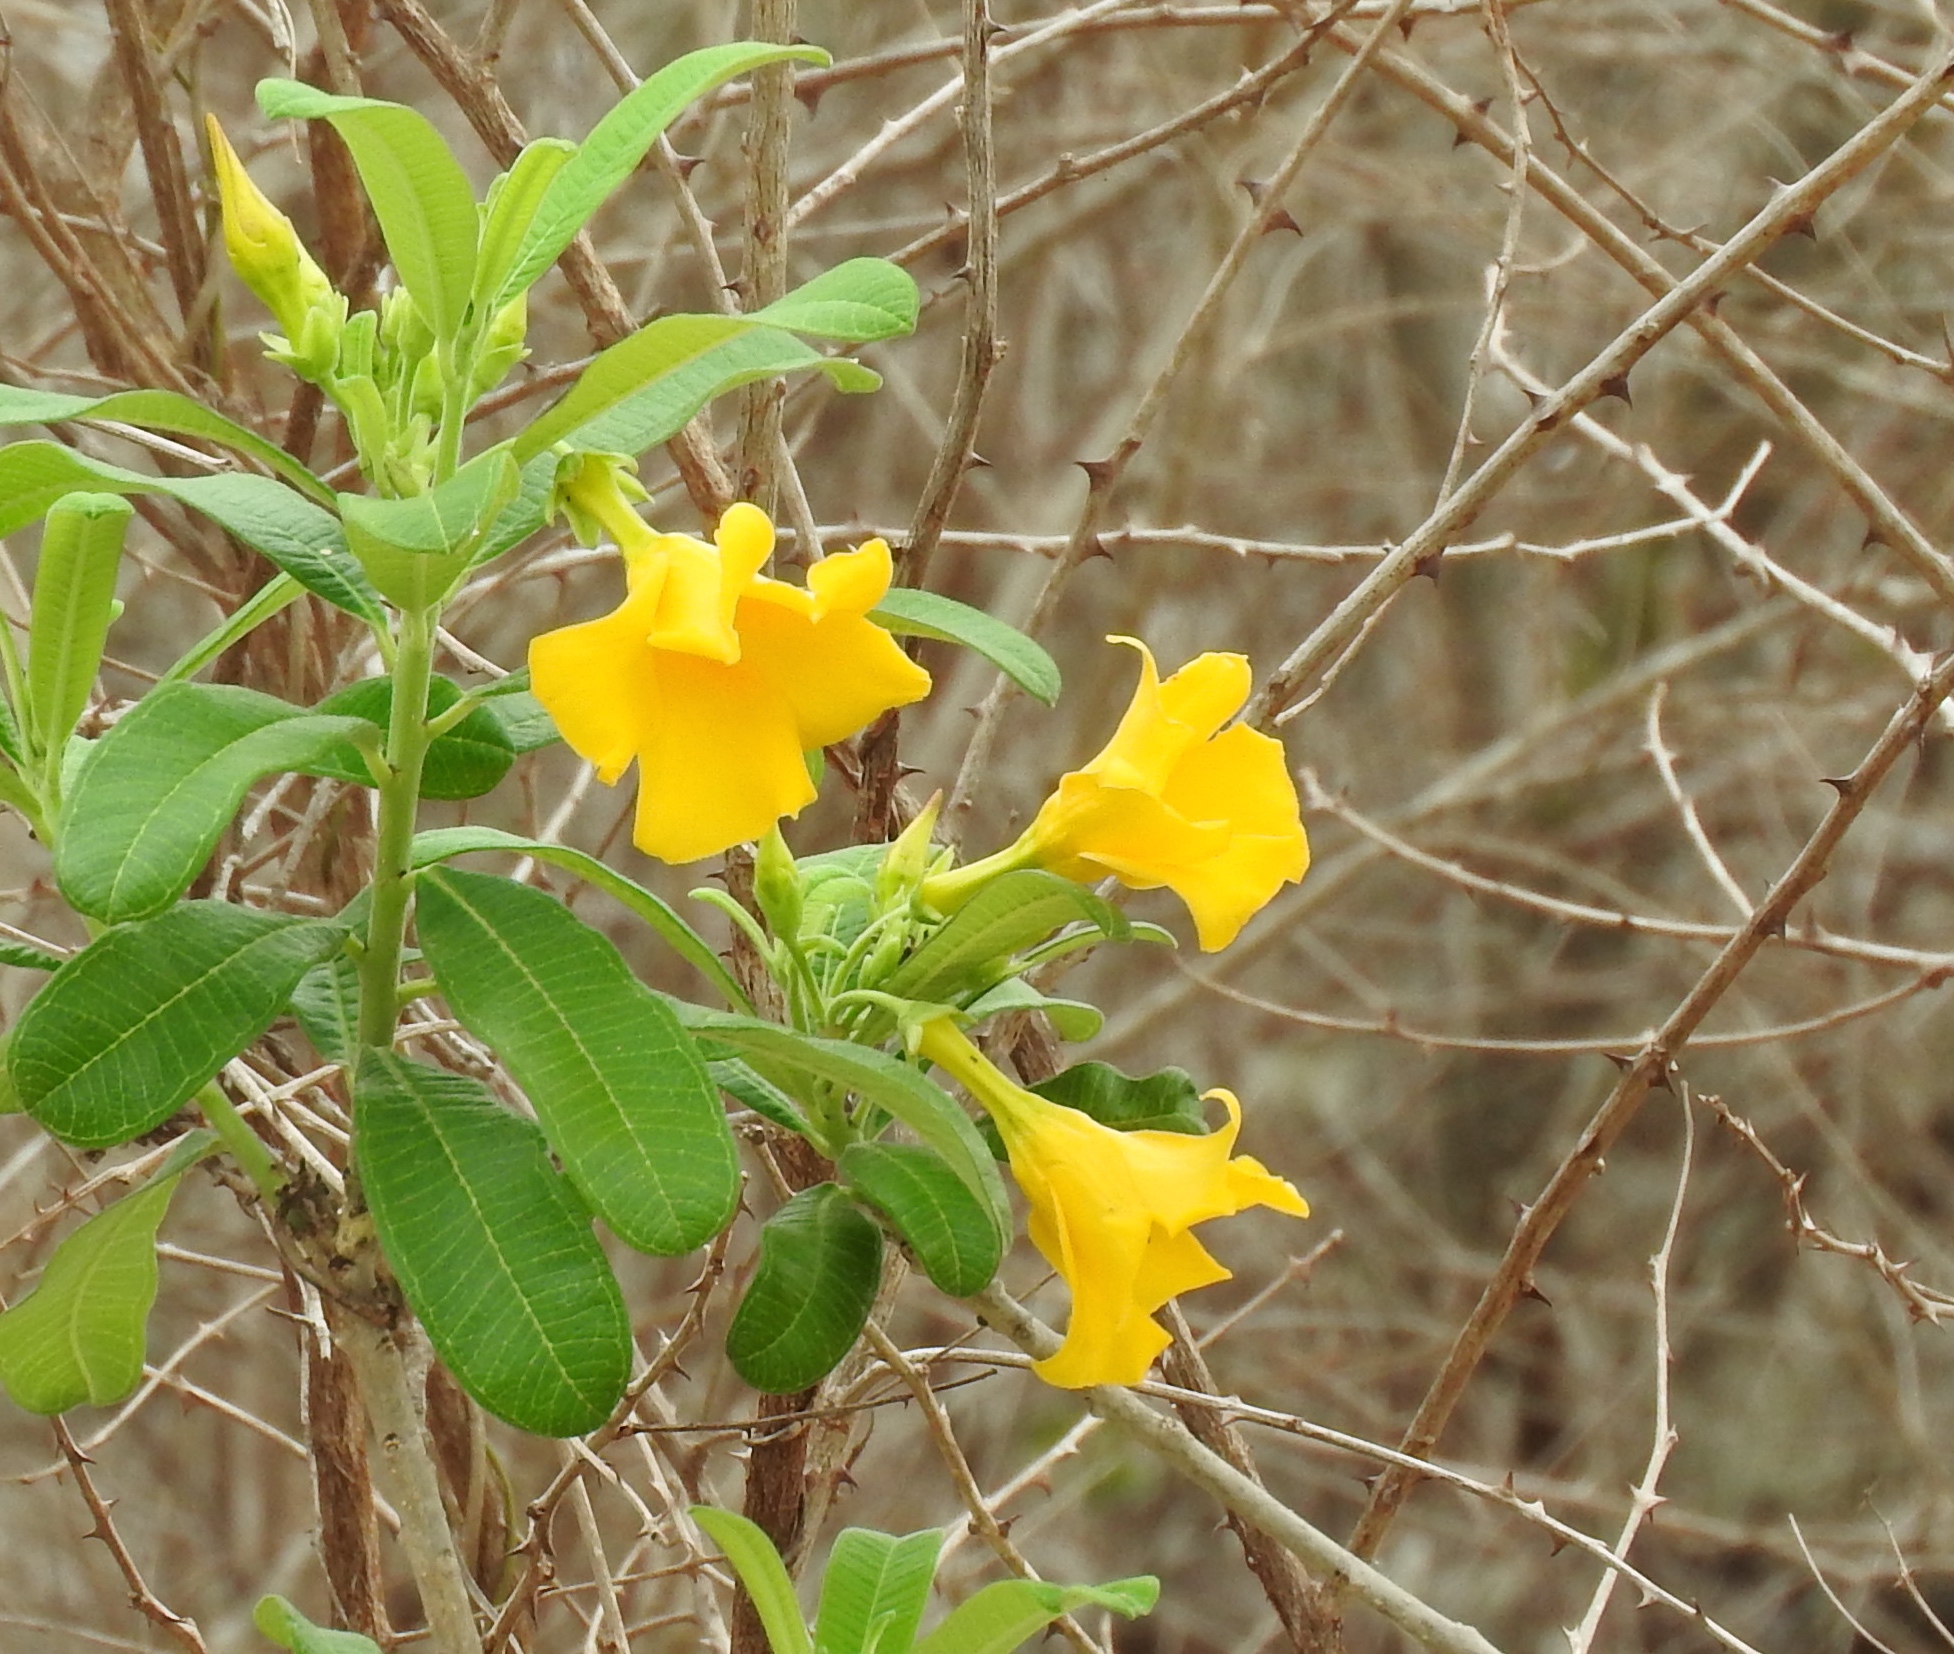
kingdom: Plantae
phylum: Tracheophyta
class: Magnoliopsida
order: Gentianales
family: Apocynaceae
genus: Cascabela
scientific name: Cascabela ovata
